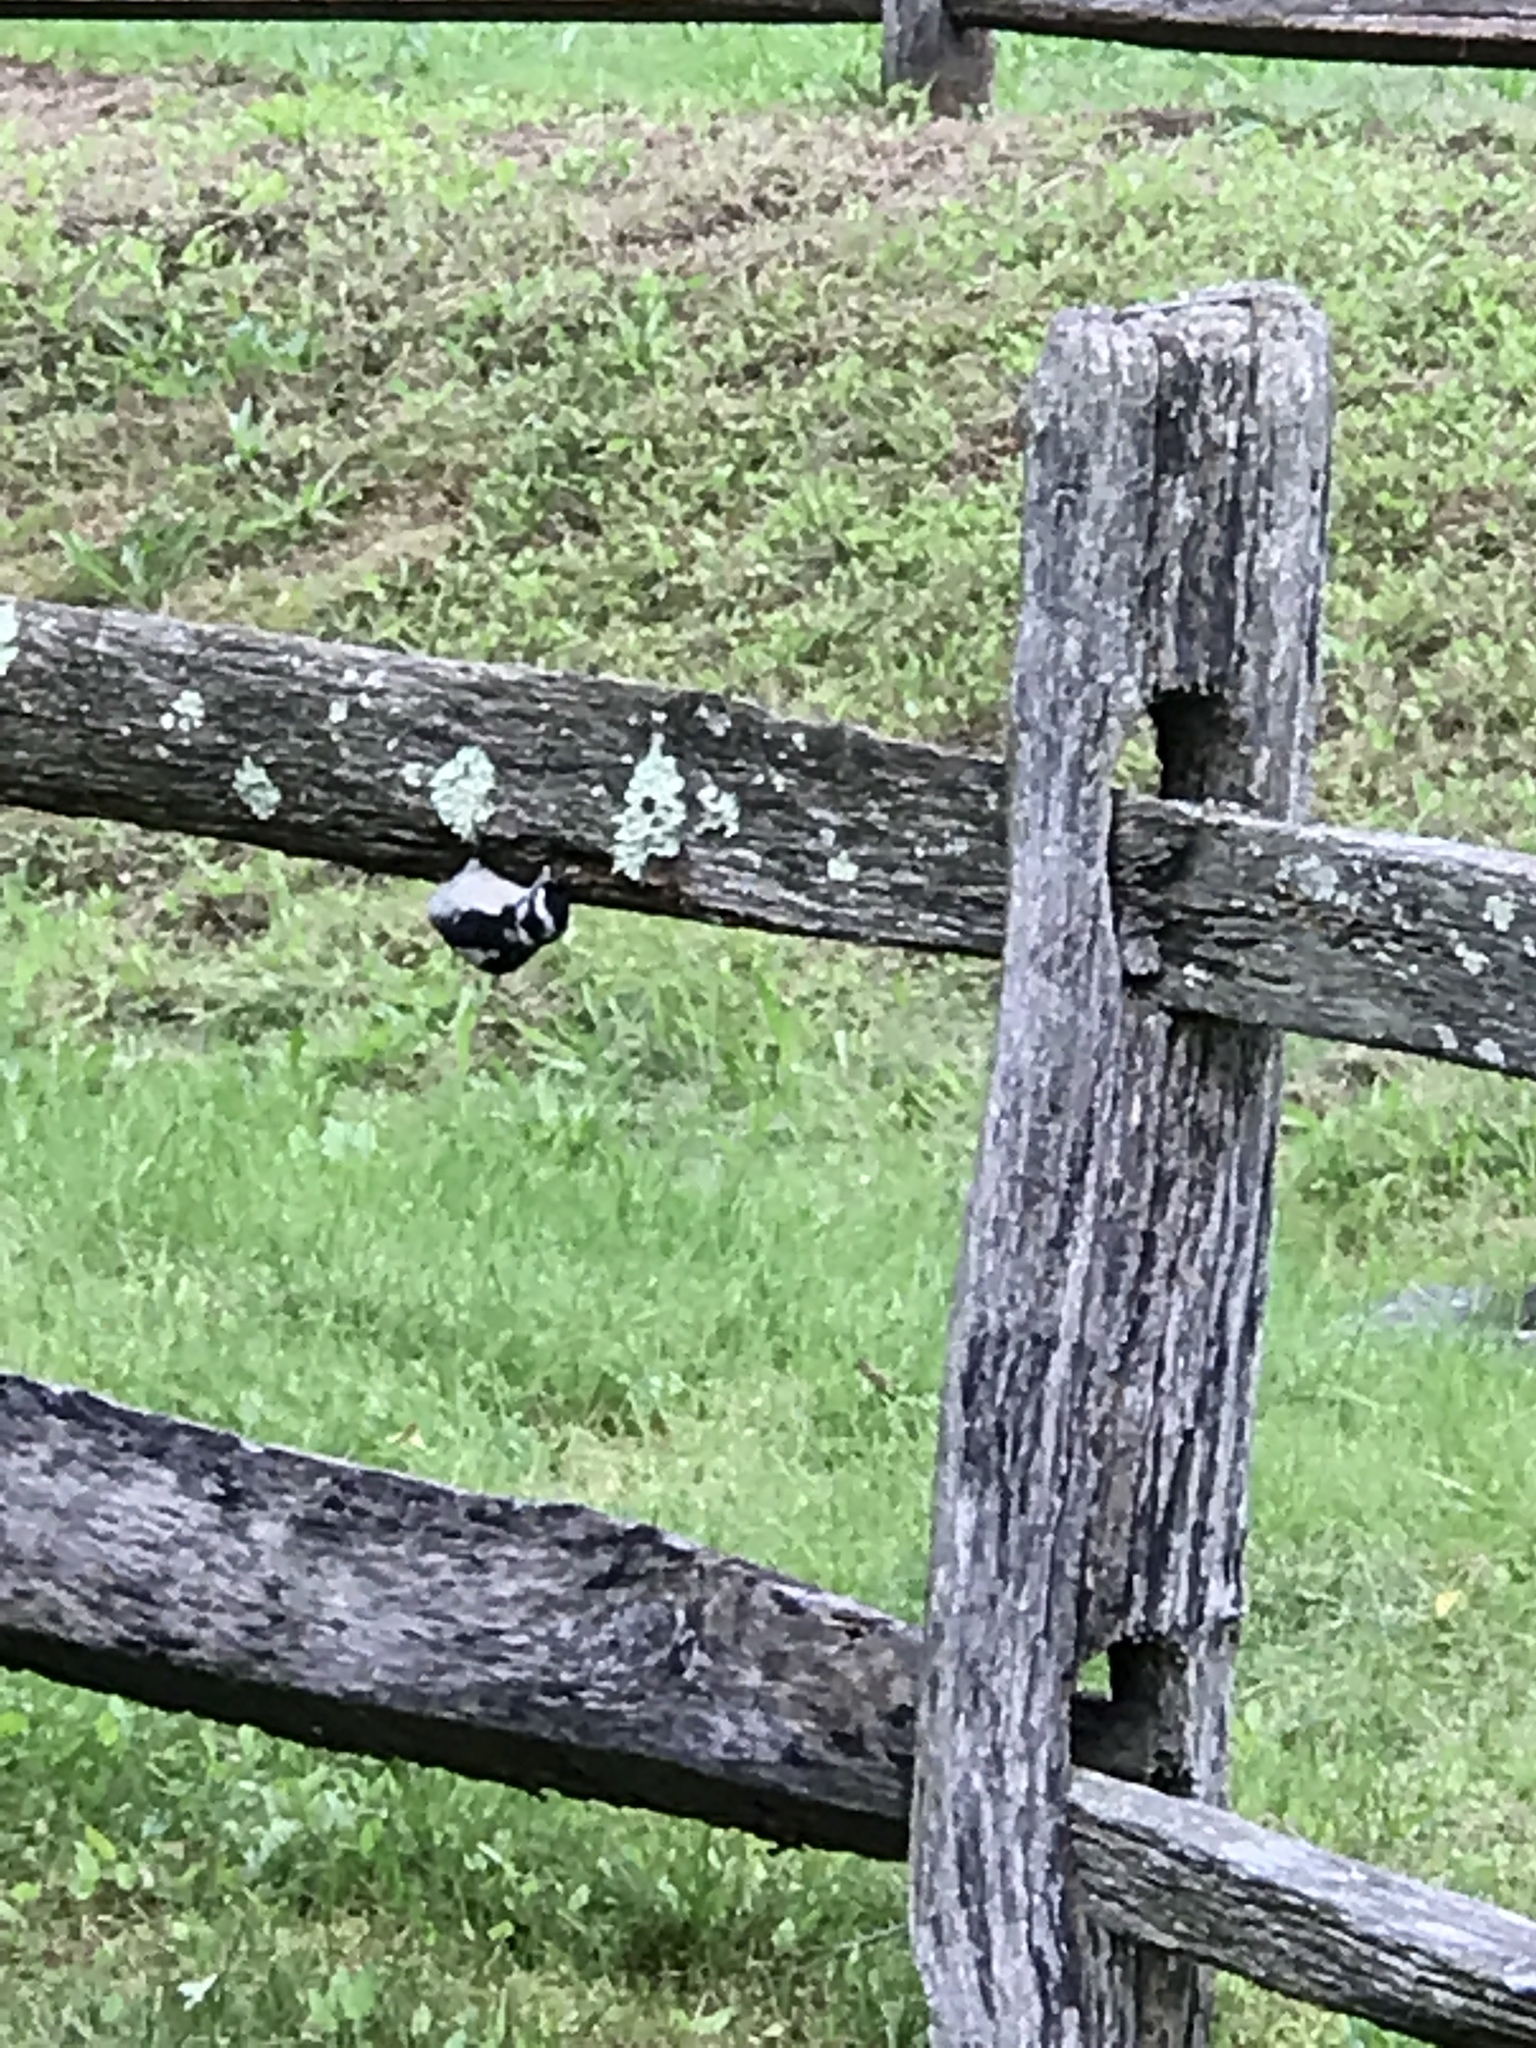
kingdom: Animalia
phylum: Chordata
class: Aves
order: Piciformes
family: Picidae
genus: Dryobates
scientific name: Dryobates pubescens
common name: Downy woodpecker
